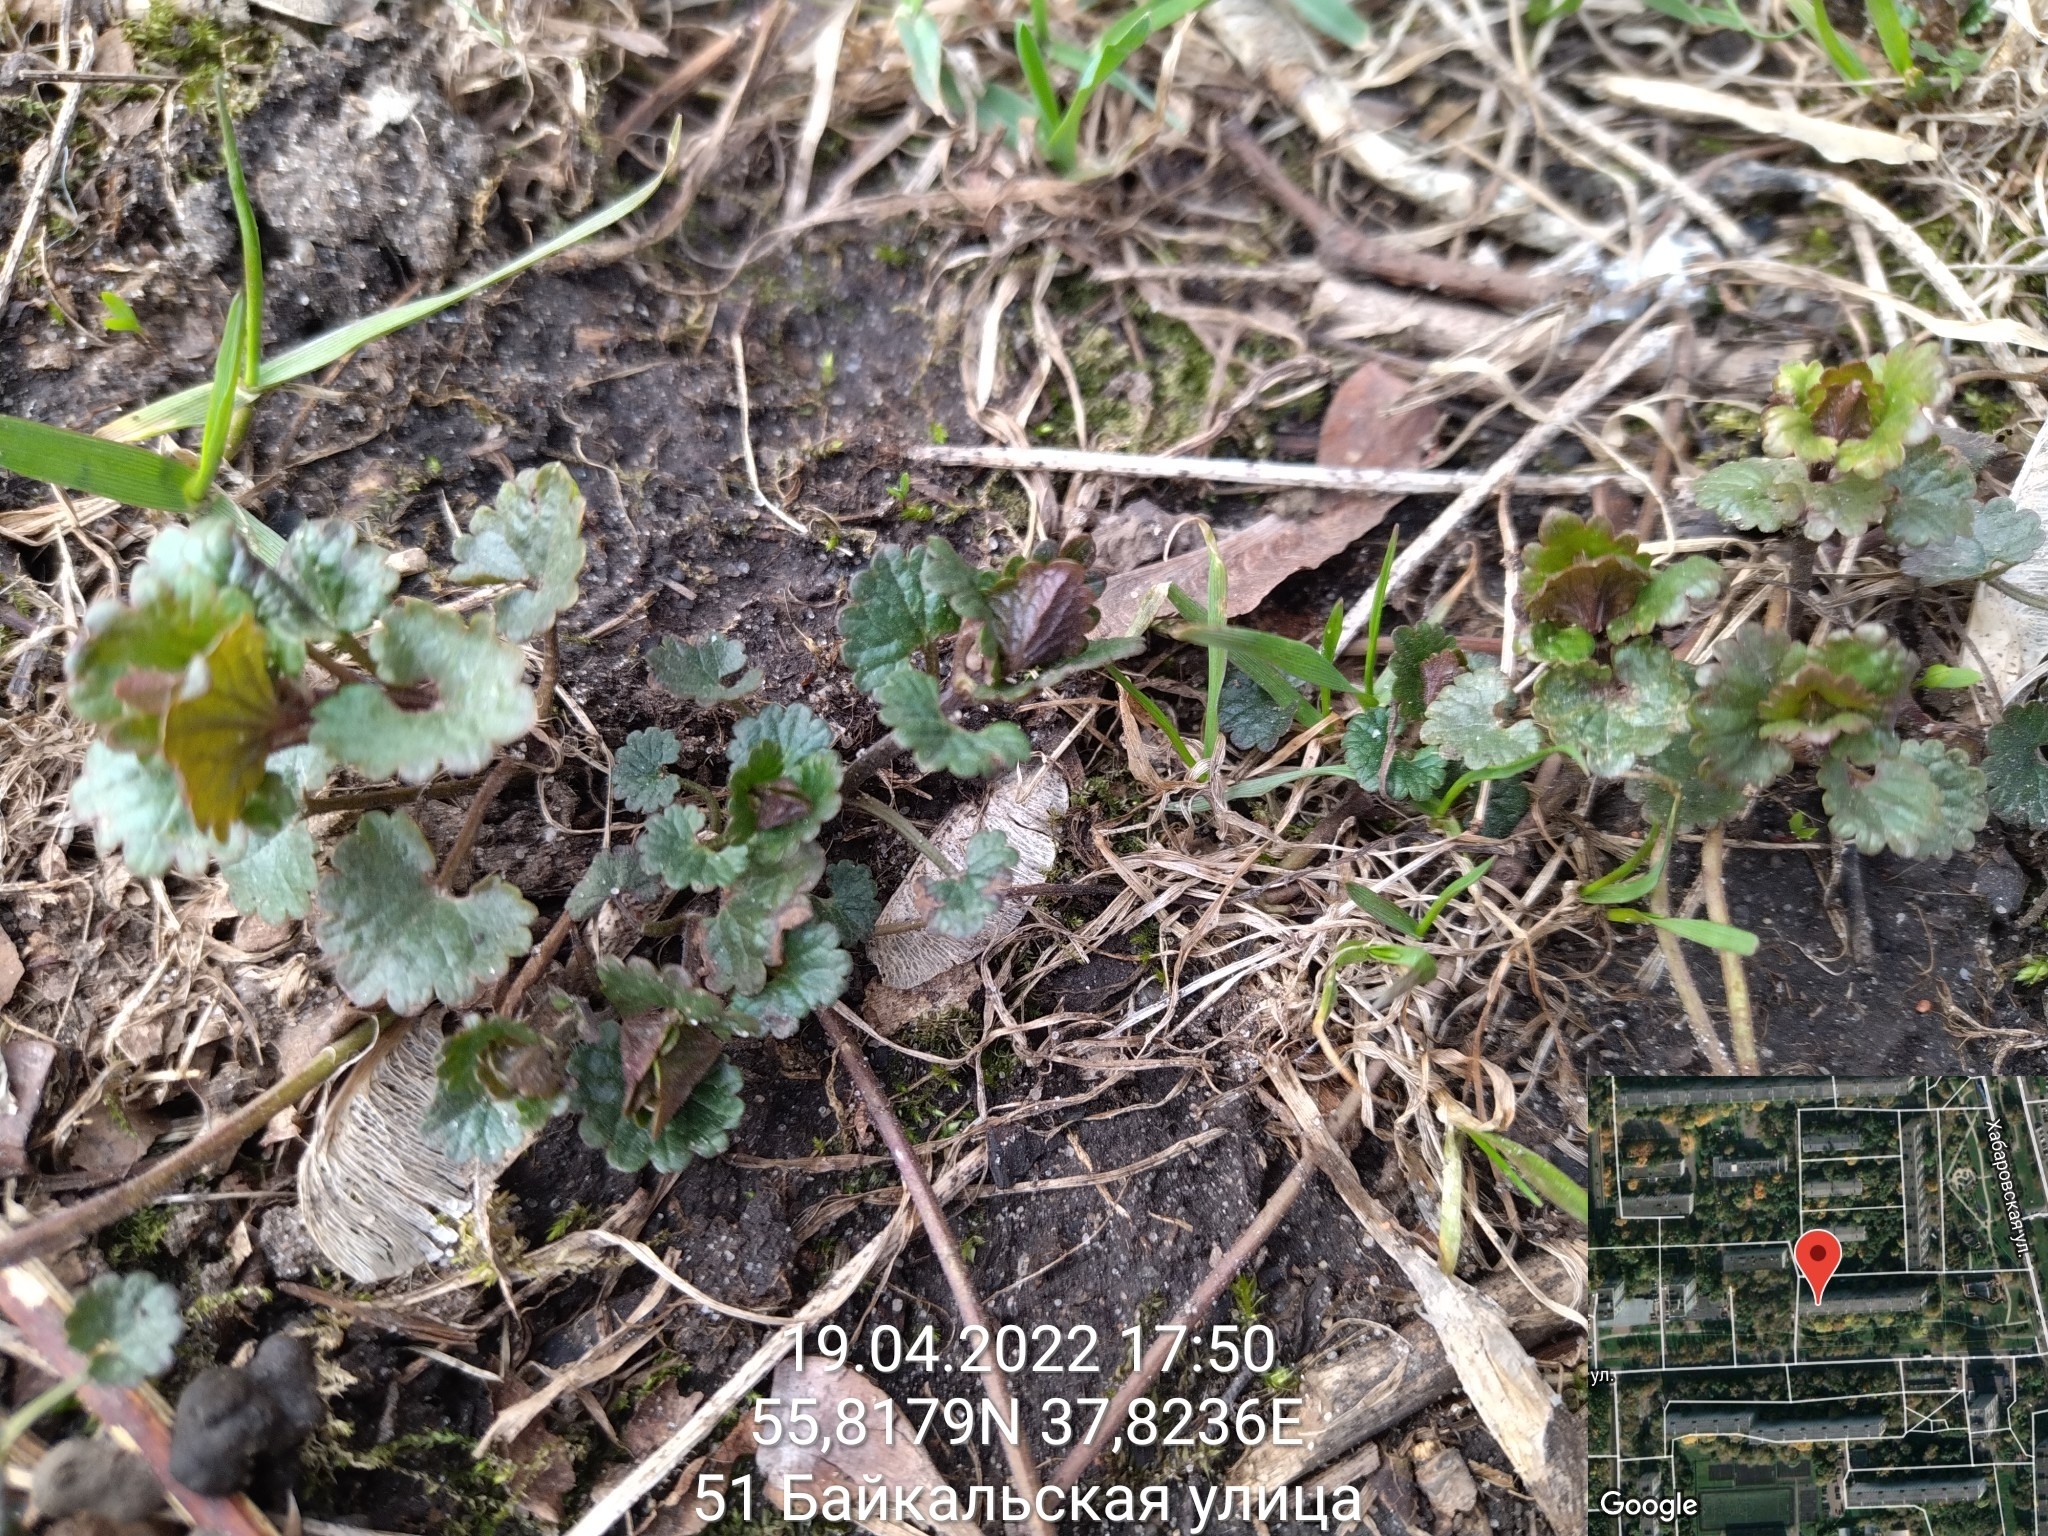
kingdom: Plantae
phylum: Tracheophyta
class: Magnoliopsida
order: Lamiales
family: Lamiaceae
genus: Glechoma
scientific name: Glechoma hederacea
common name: Ground ivy
